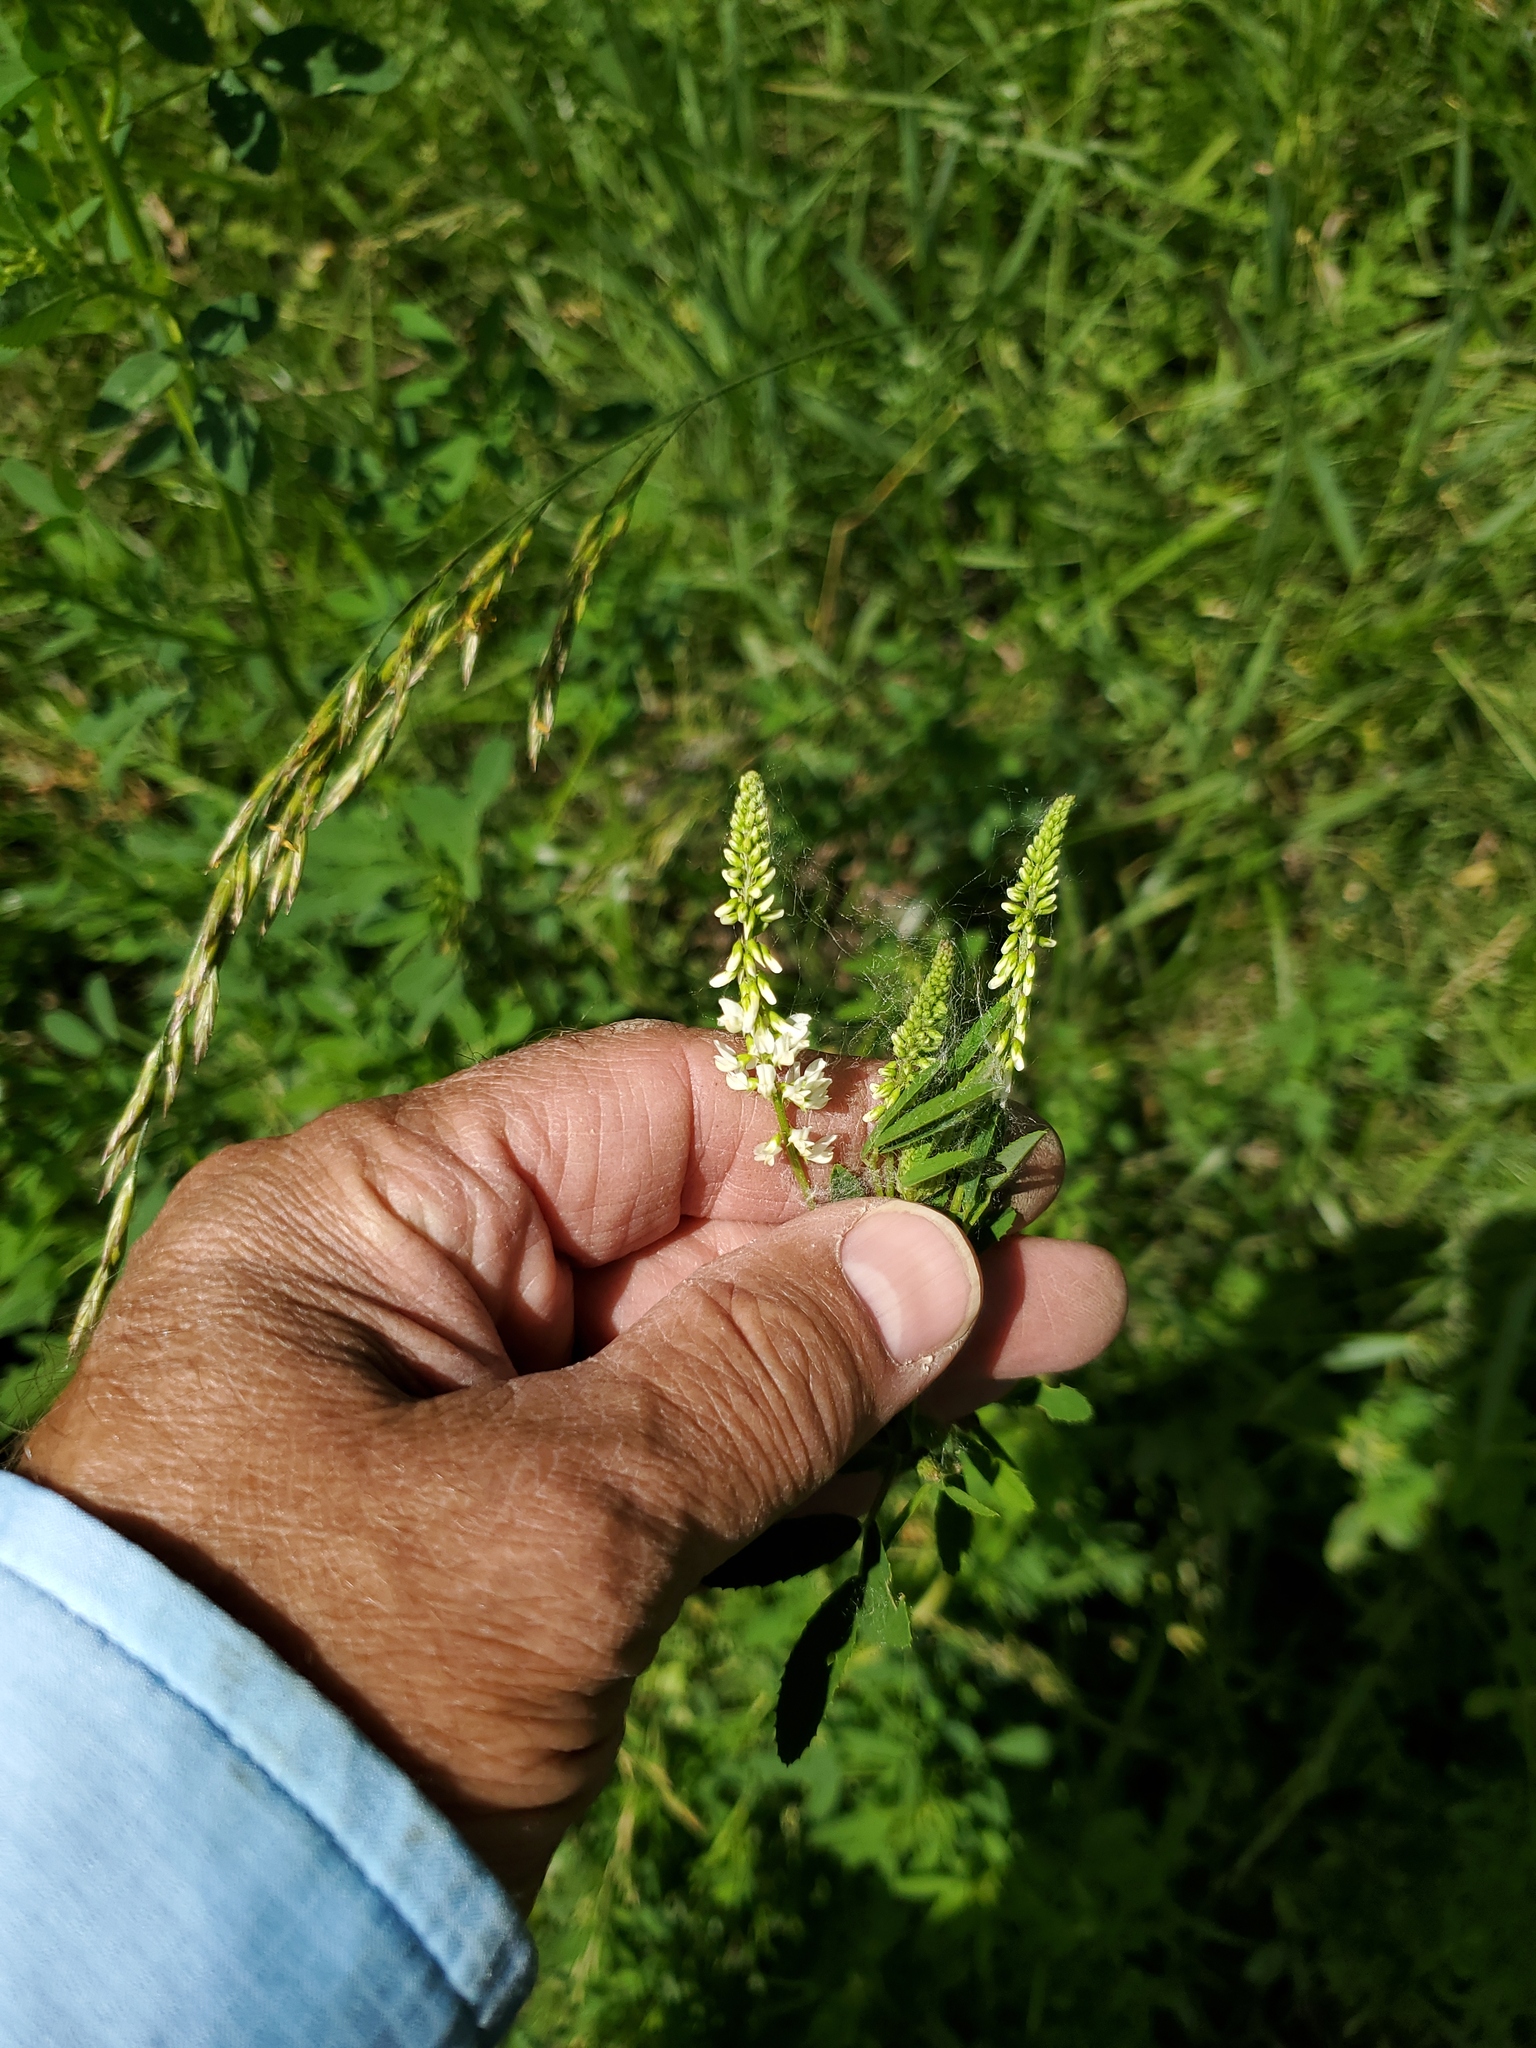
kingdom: Plantae
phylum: Tracheophyta
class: Magnoliopsida
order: Fabales
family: Fabaceae
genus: Melilotus
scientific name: Melilotus albus
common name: White melilot
